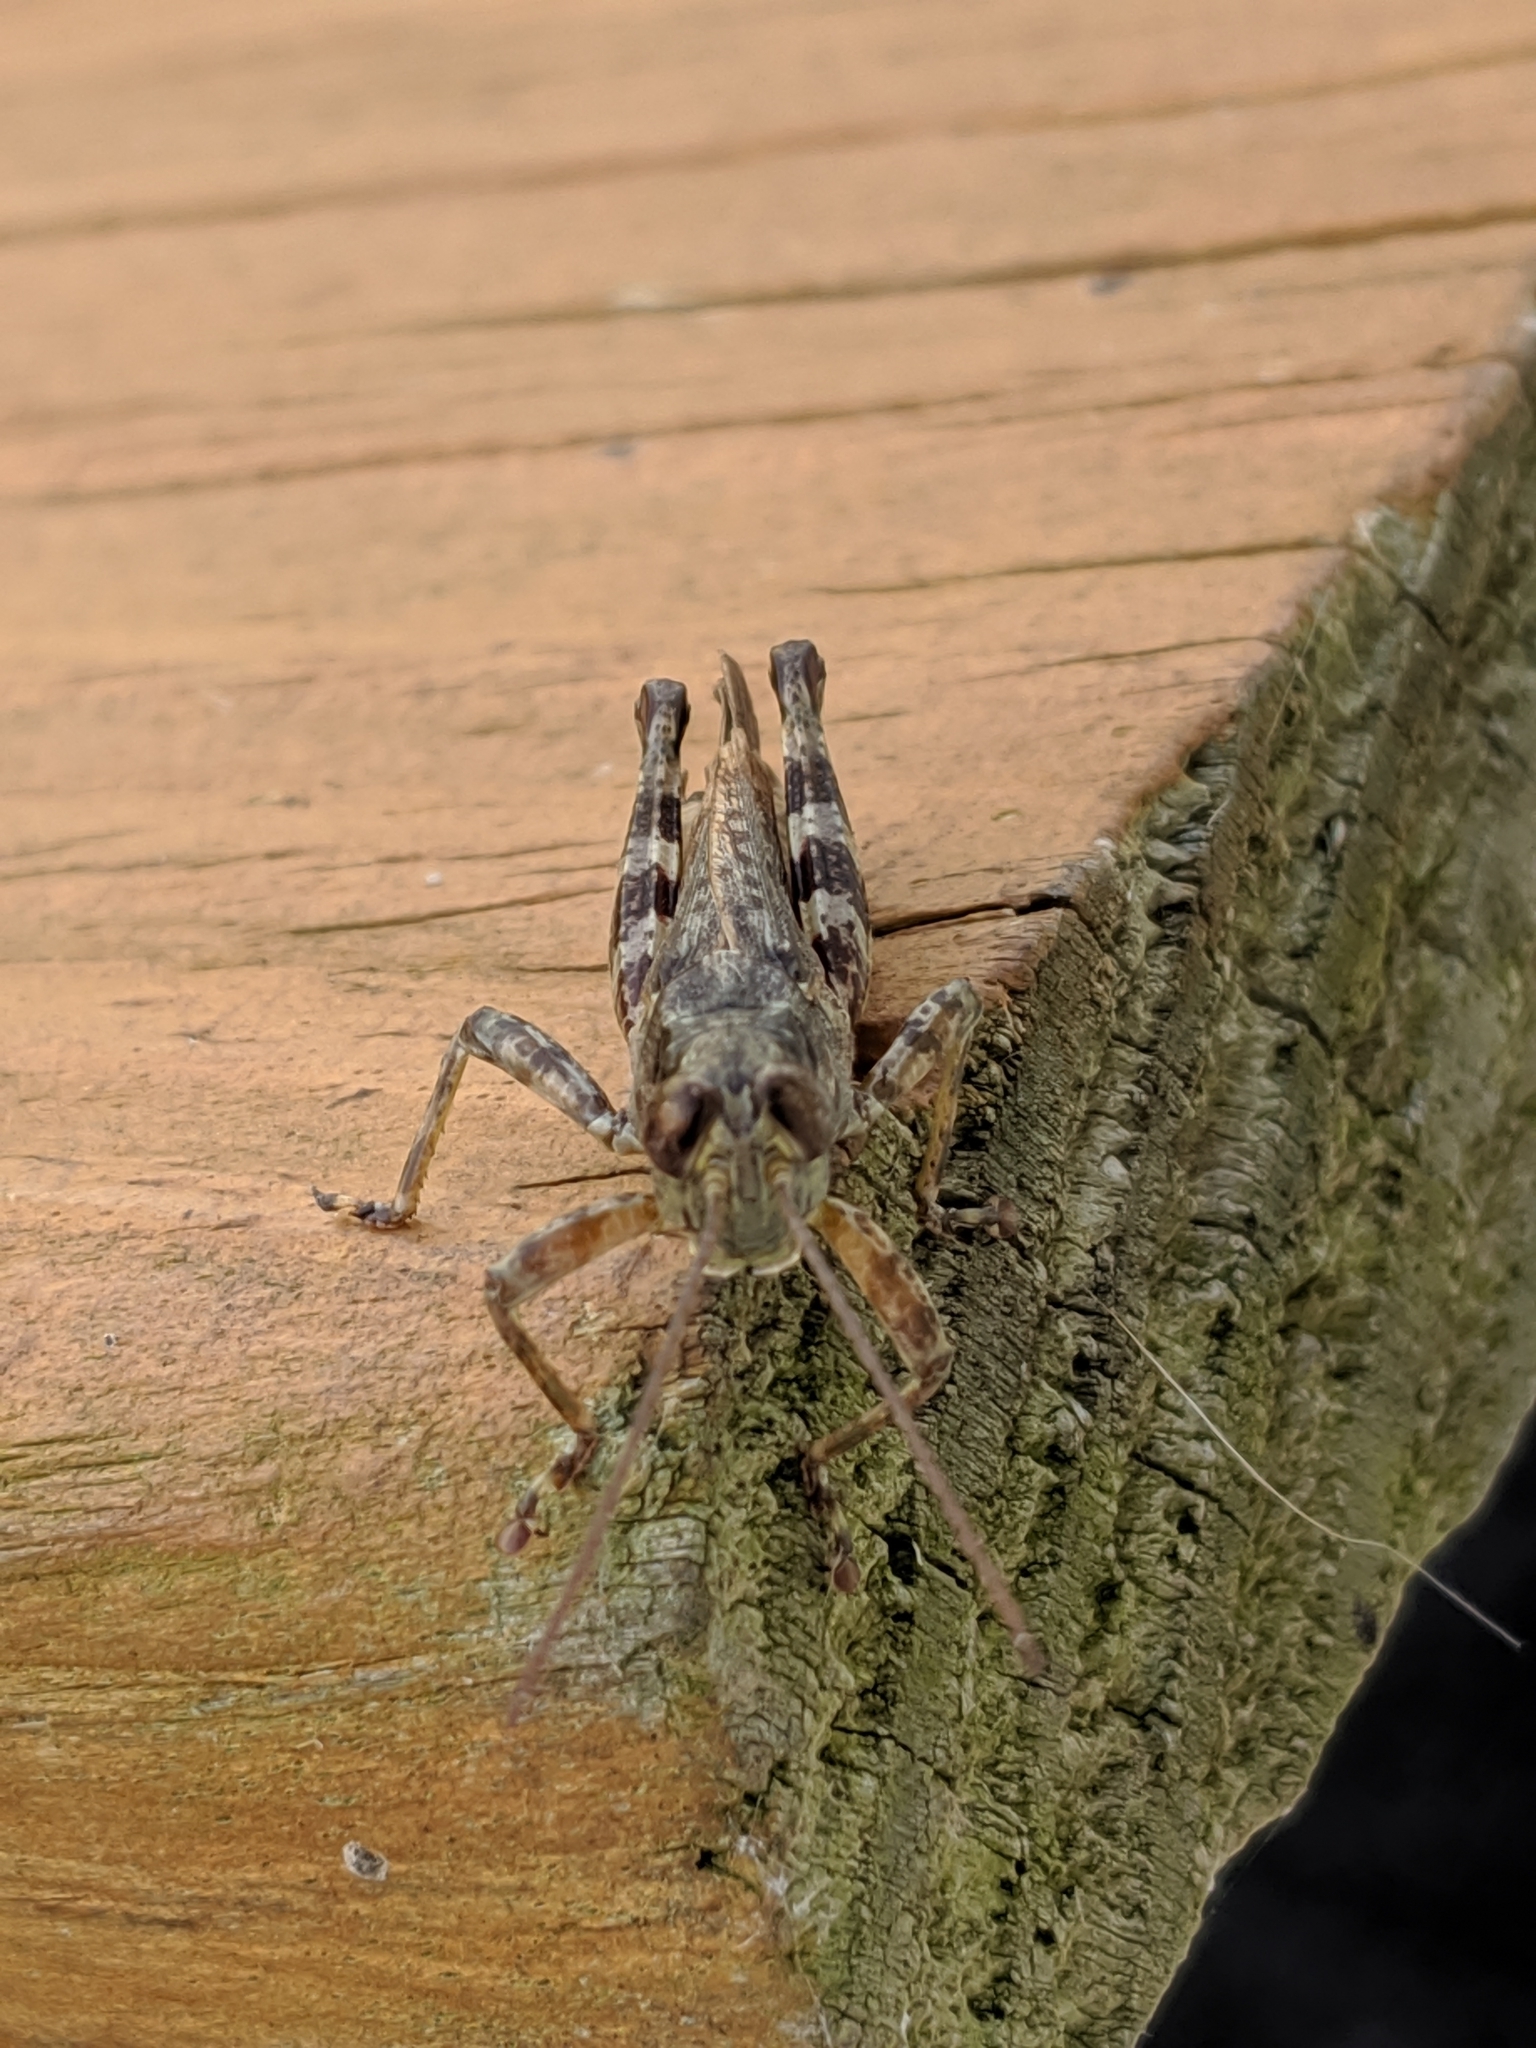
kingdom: Animalia
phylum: Arthropoda
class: Insecta
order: Orthoptera
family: Acrididae
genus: Melanoplus
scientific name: Melanoplus punctulatus
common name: Pine-tree spur-throat grasshopper
